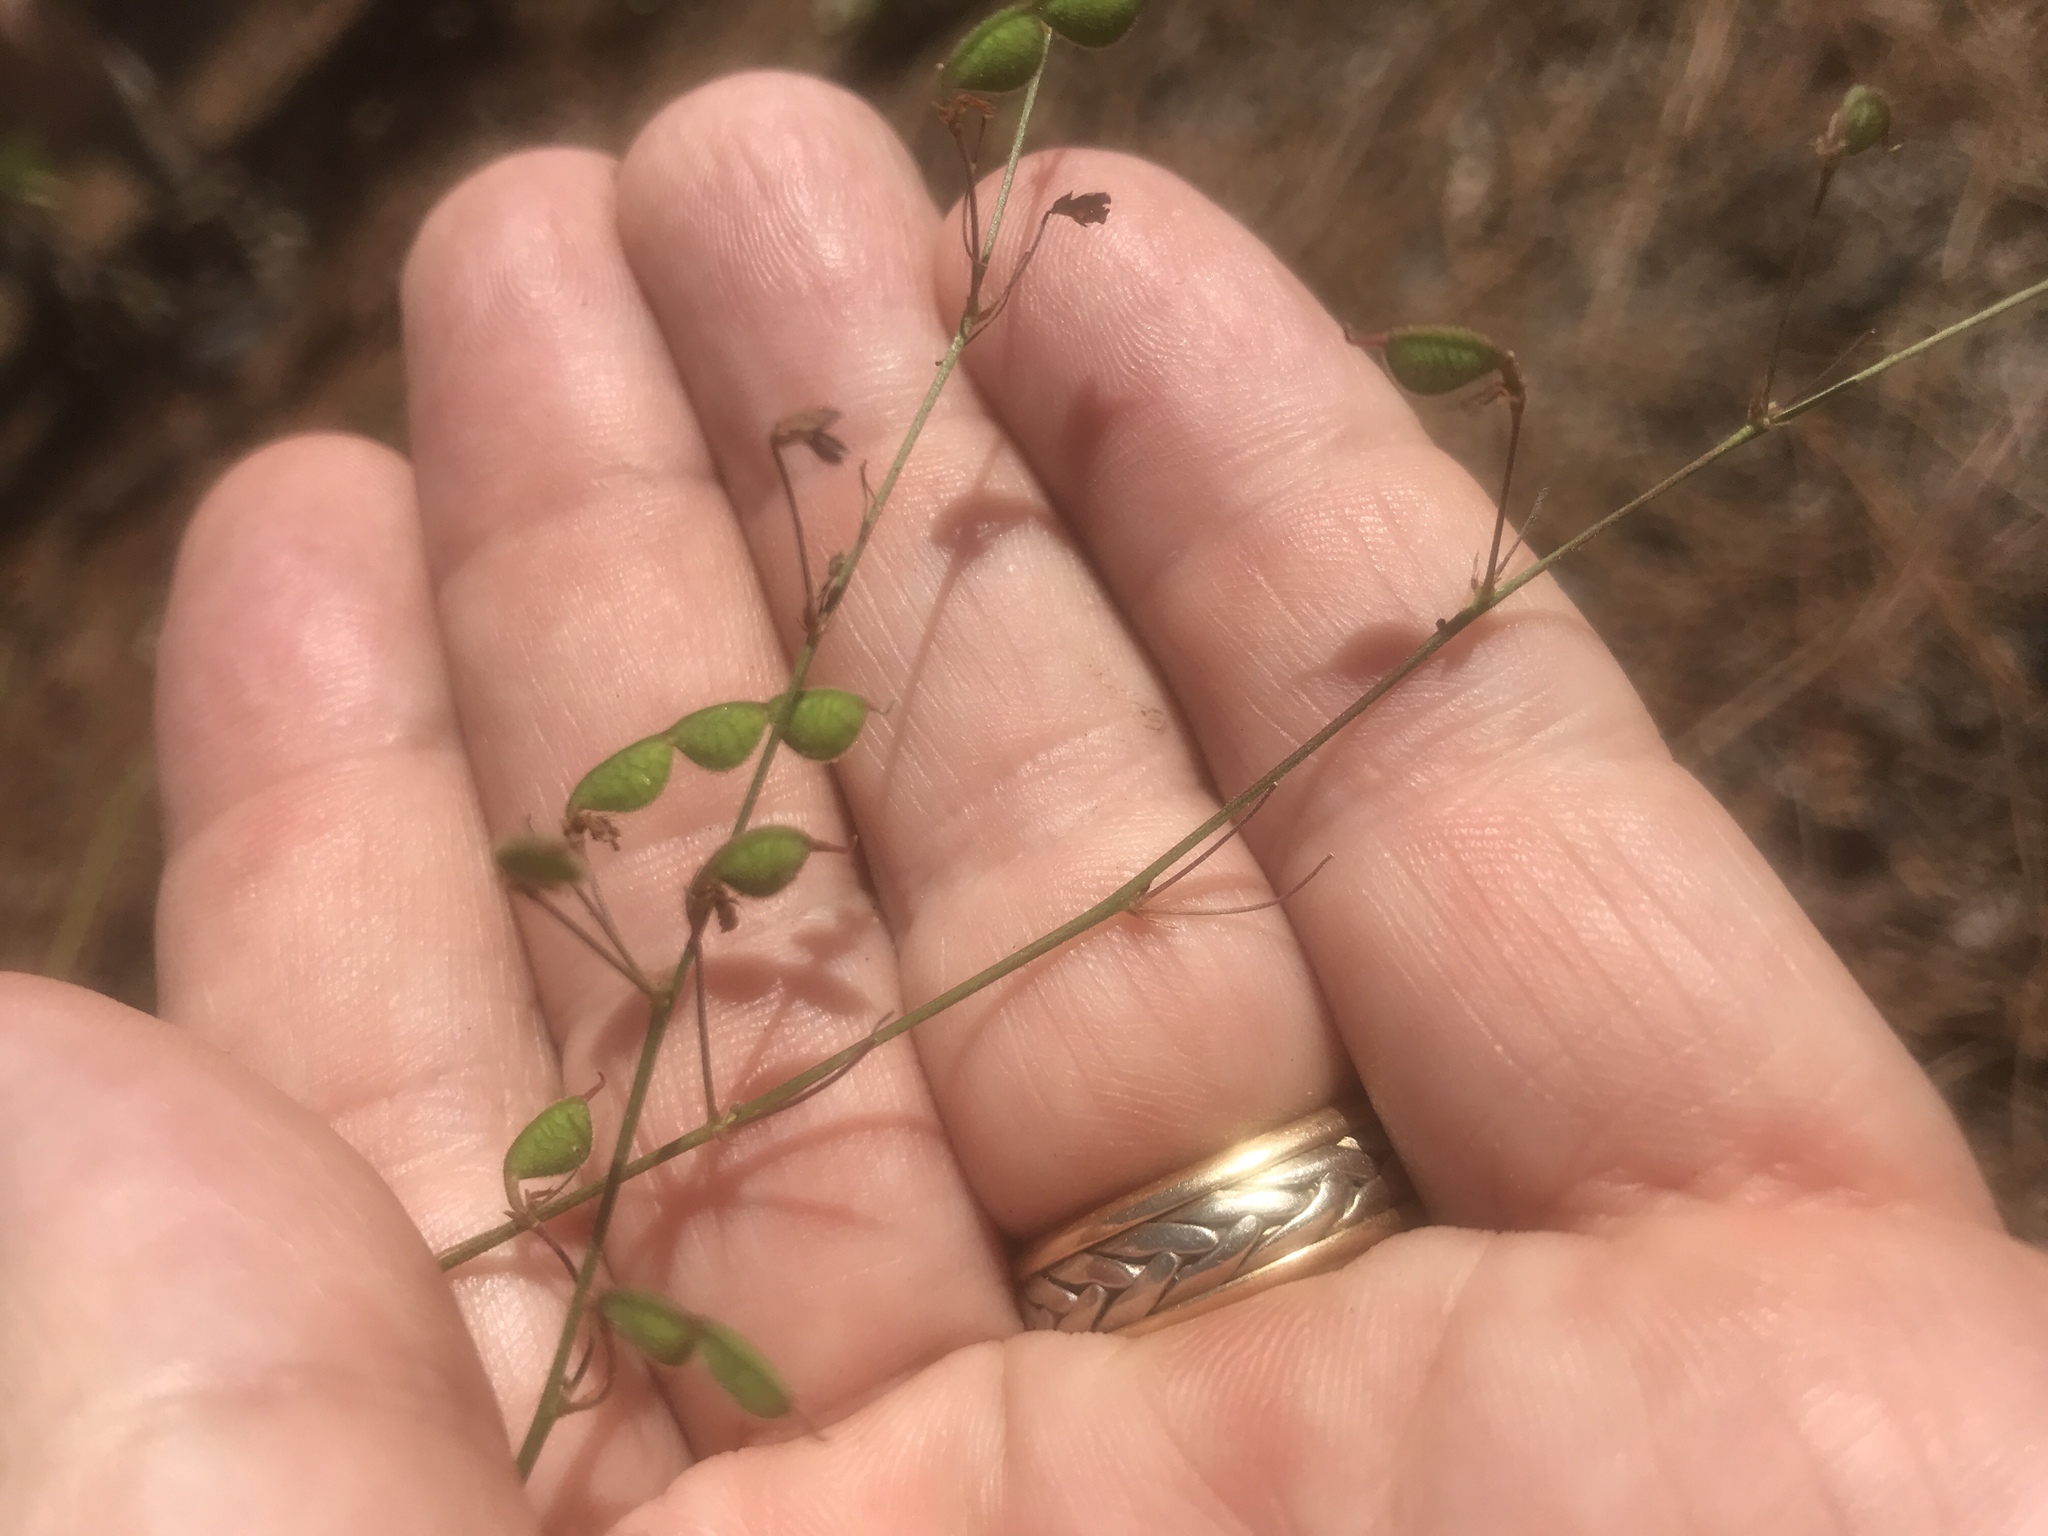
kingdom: Plantae
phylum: Tracheophyta
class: Magnoliopsida
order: Fabales
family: Fabaceae
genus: Desmodium
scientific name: Desmodium tenuifolium
